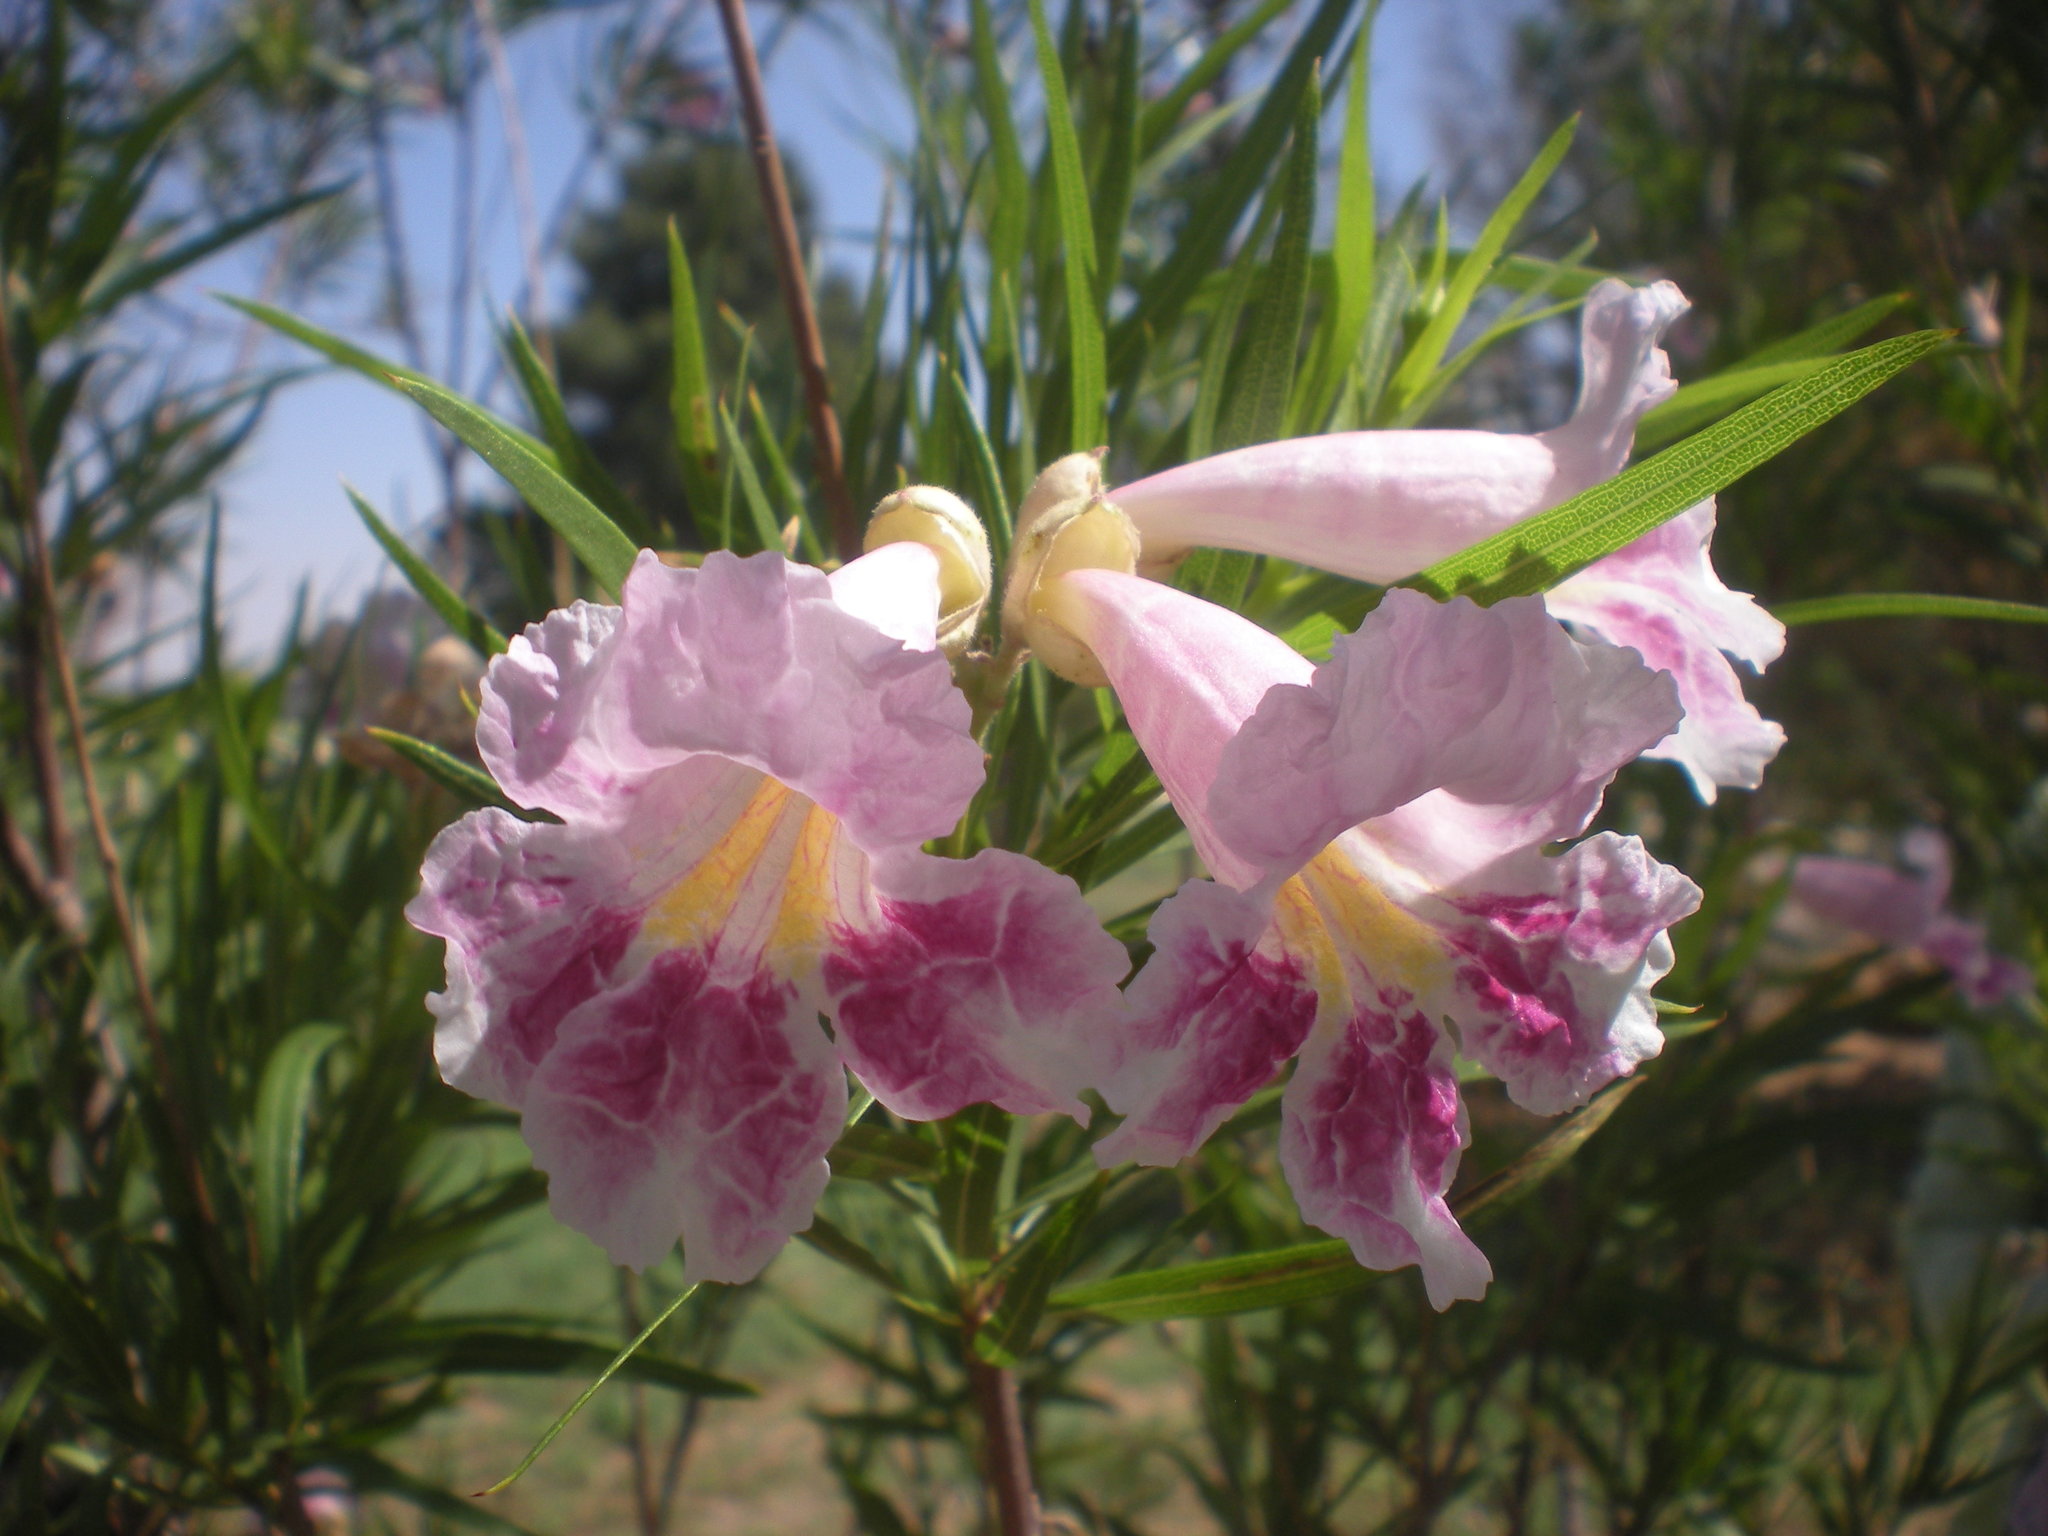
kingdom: Plantae
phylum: Tracheophyta
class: Magnoliopsida
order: Lamiales
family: Bignoniaceae
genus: Chilopsis
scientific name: Chilopsis linearis
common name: Desert-willow
